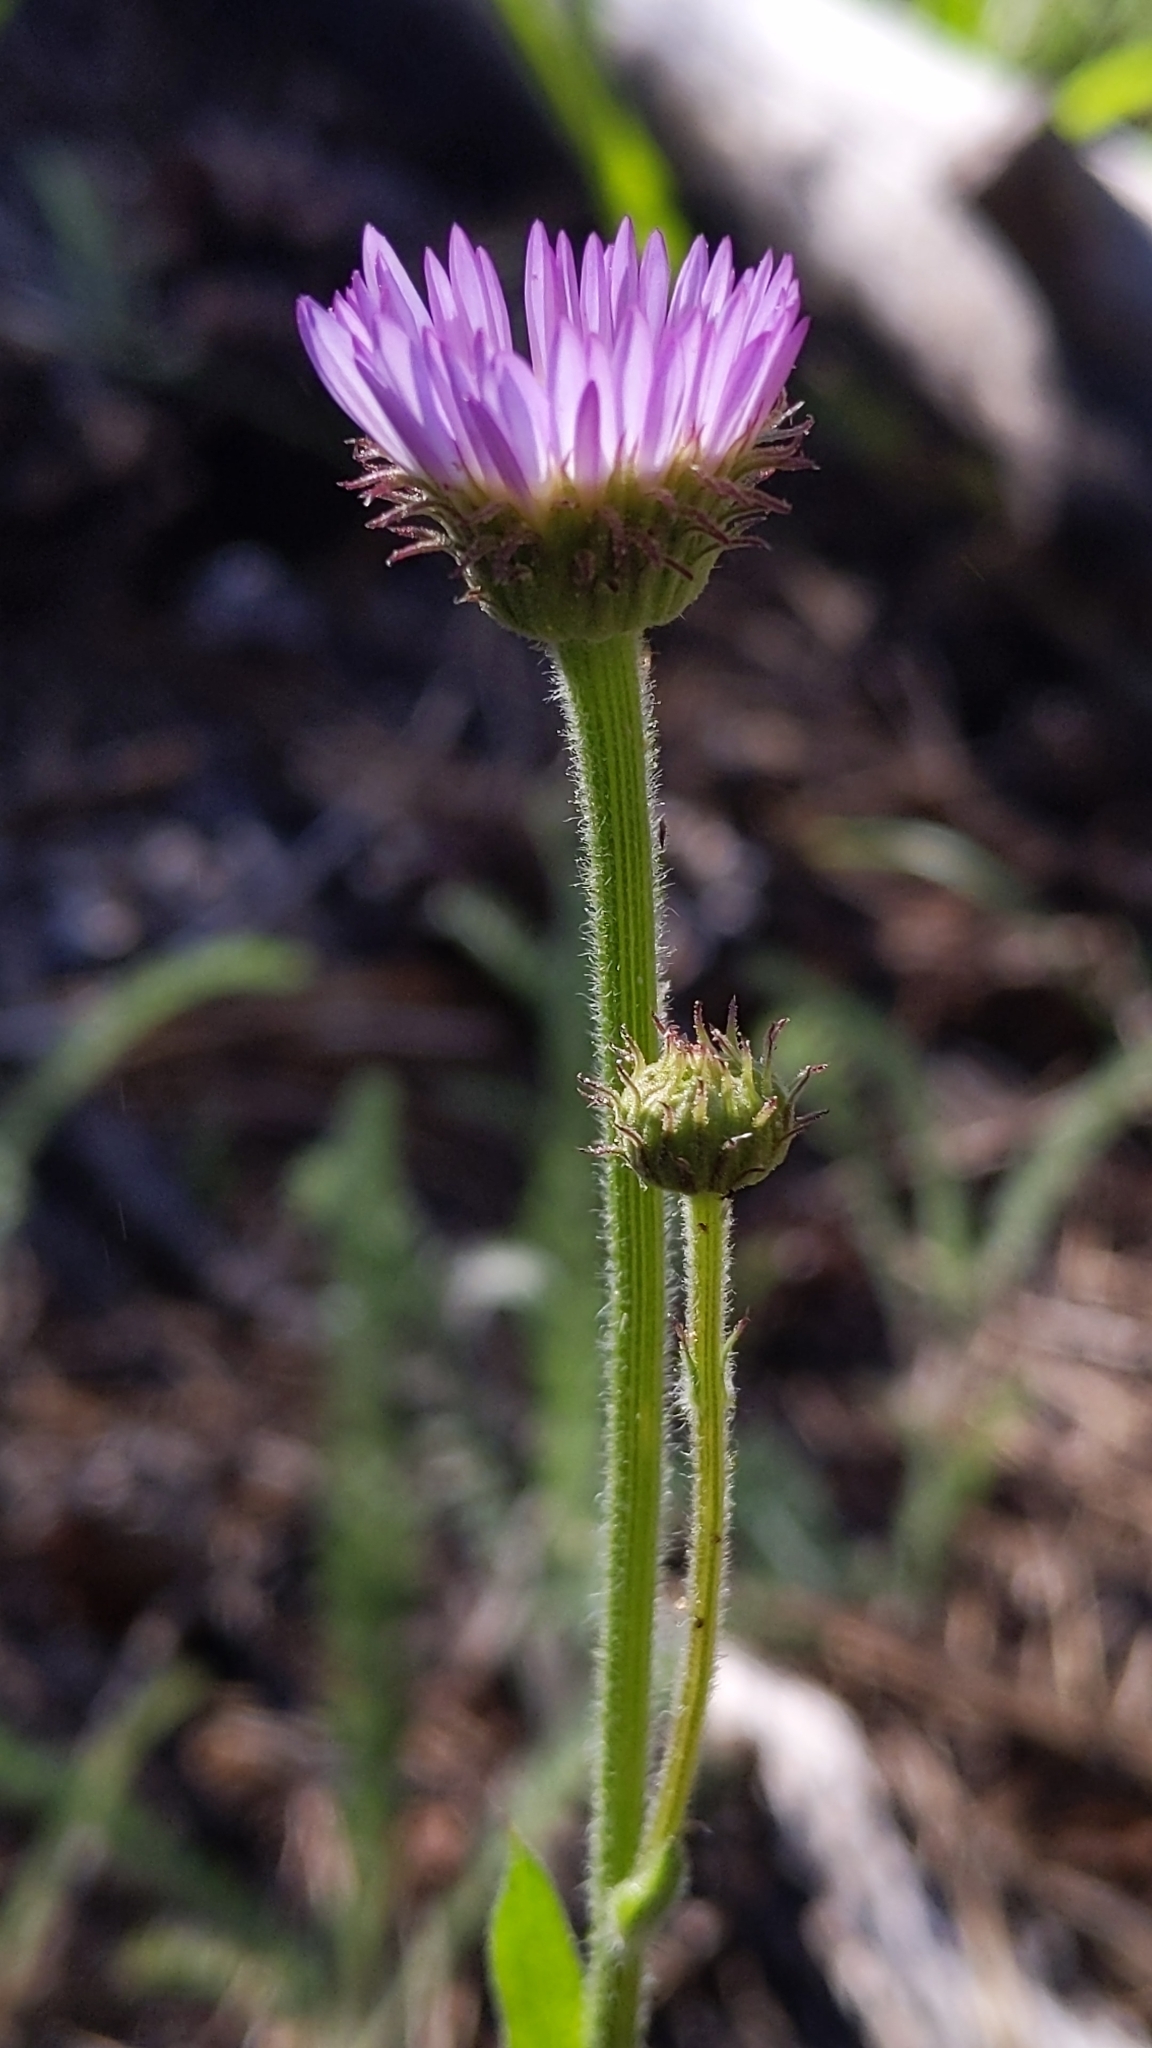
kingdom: Plantae
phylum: Tracheophyta
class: Magnoliopsida
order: Asterales
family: Asteraceae
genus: Erigeron
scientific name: Erigeron glacialis
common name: Subalpine fleabane
